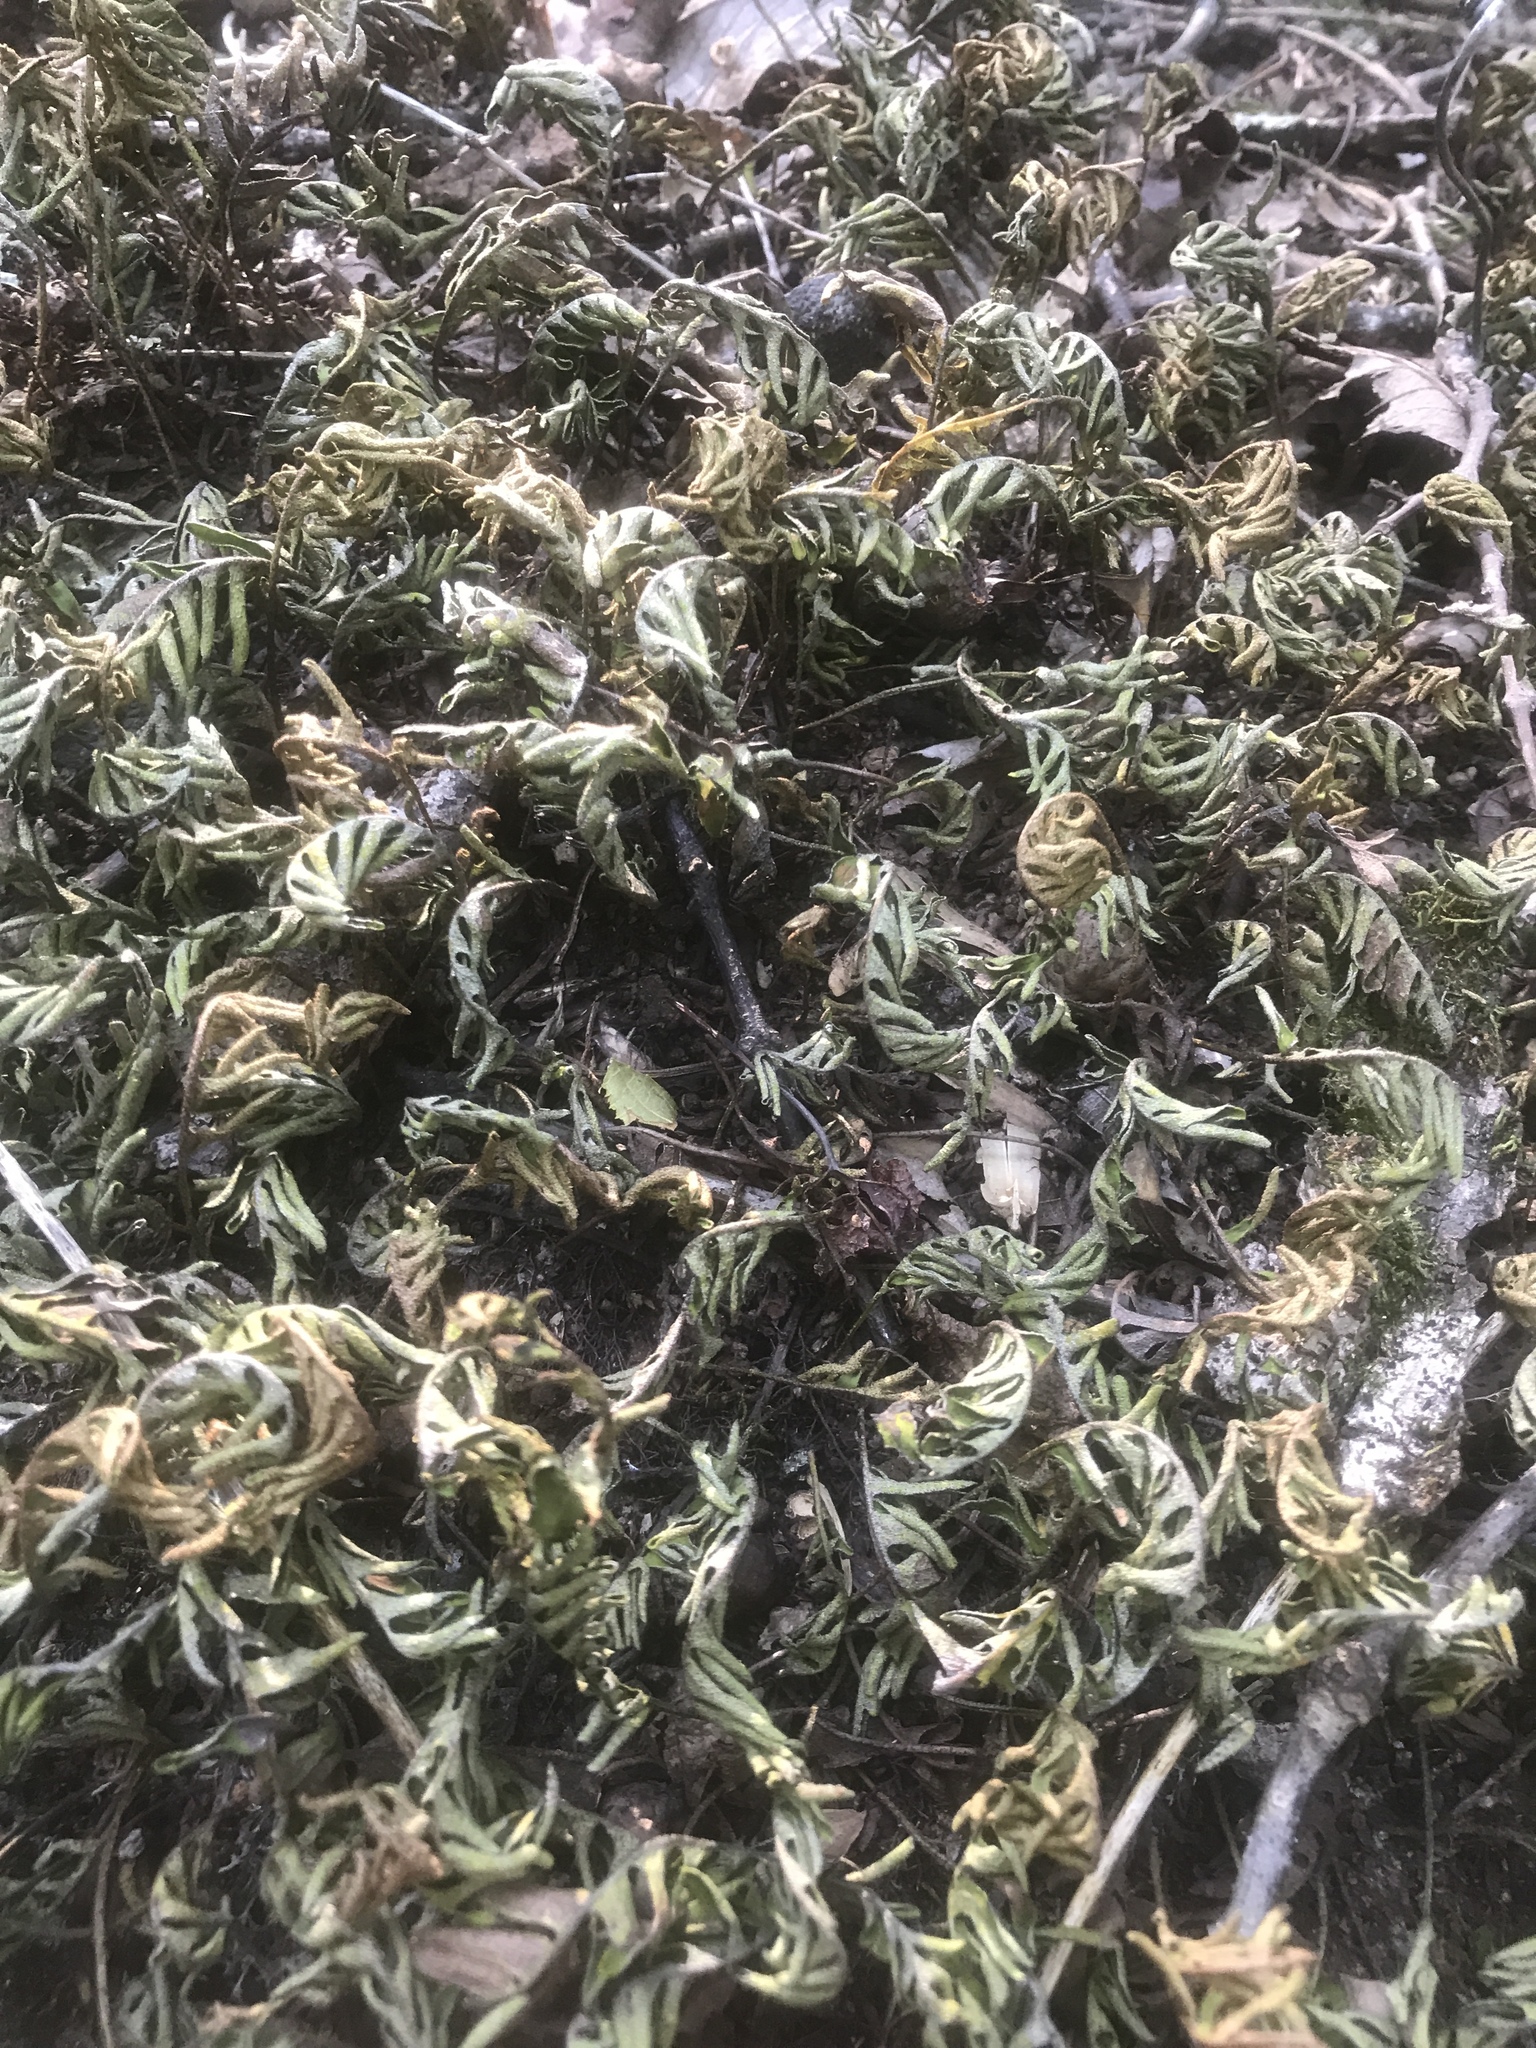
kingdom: Plantae
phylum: Tracheophyta
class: Polypodiopsida
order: Polypodiales
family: Polypodiaceae
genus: Pleopeltis
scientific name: Pleopeltis michauxiana
